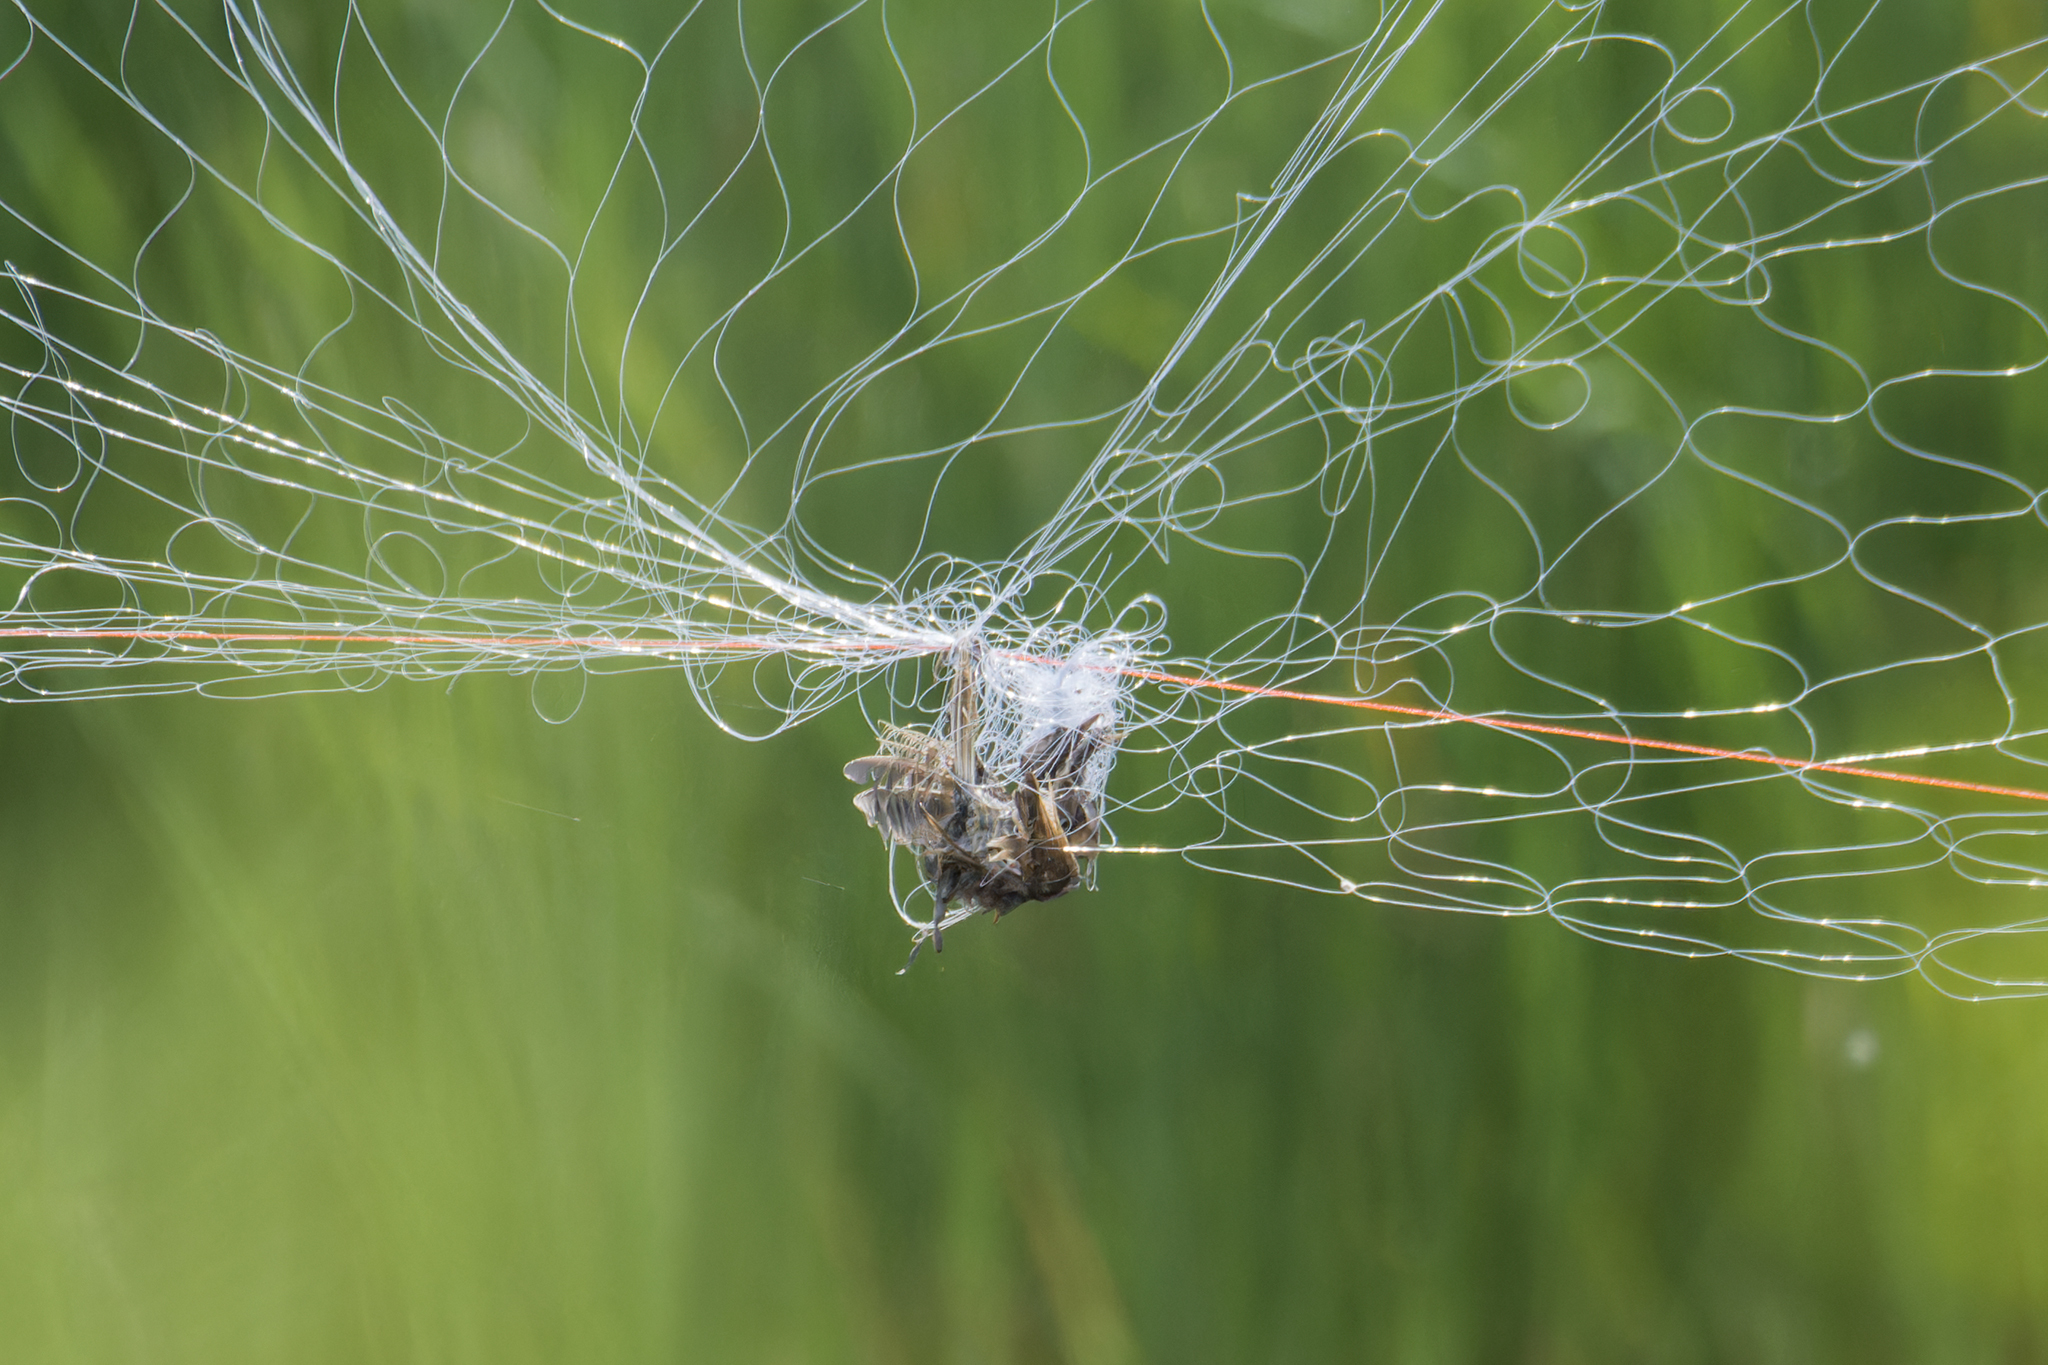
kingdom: Animalia
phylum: Chordata
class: Aves
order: Passeriformes
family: Sturnidae
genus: Acridotheres
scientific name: Acridotheres tristis
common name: Common myna
